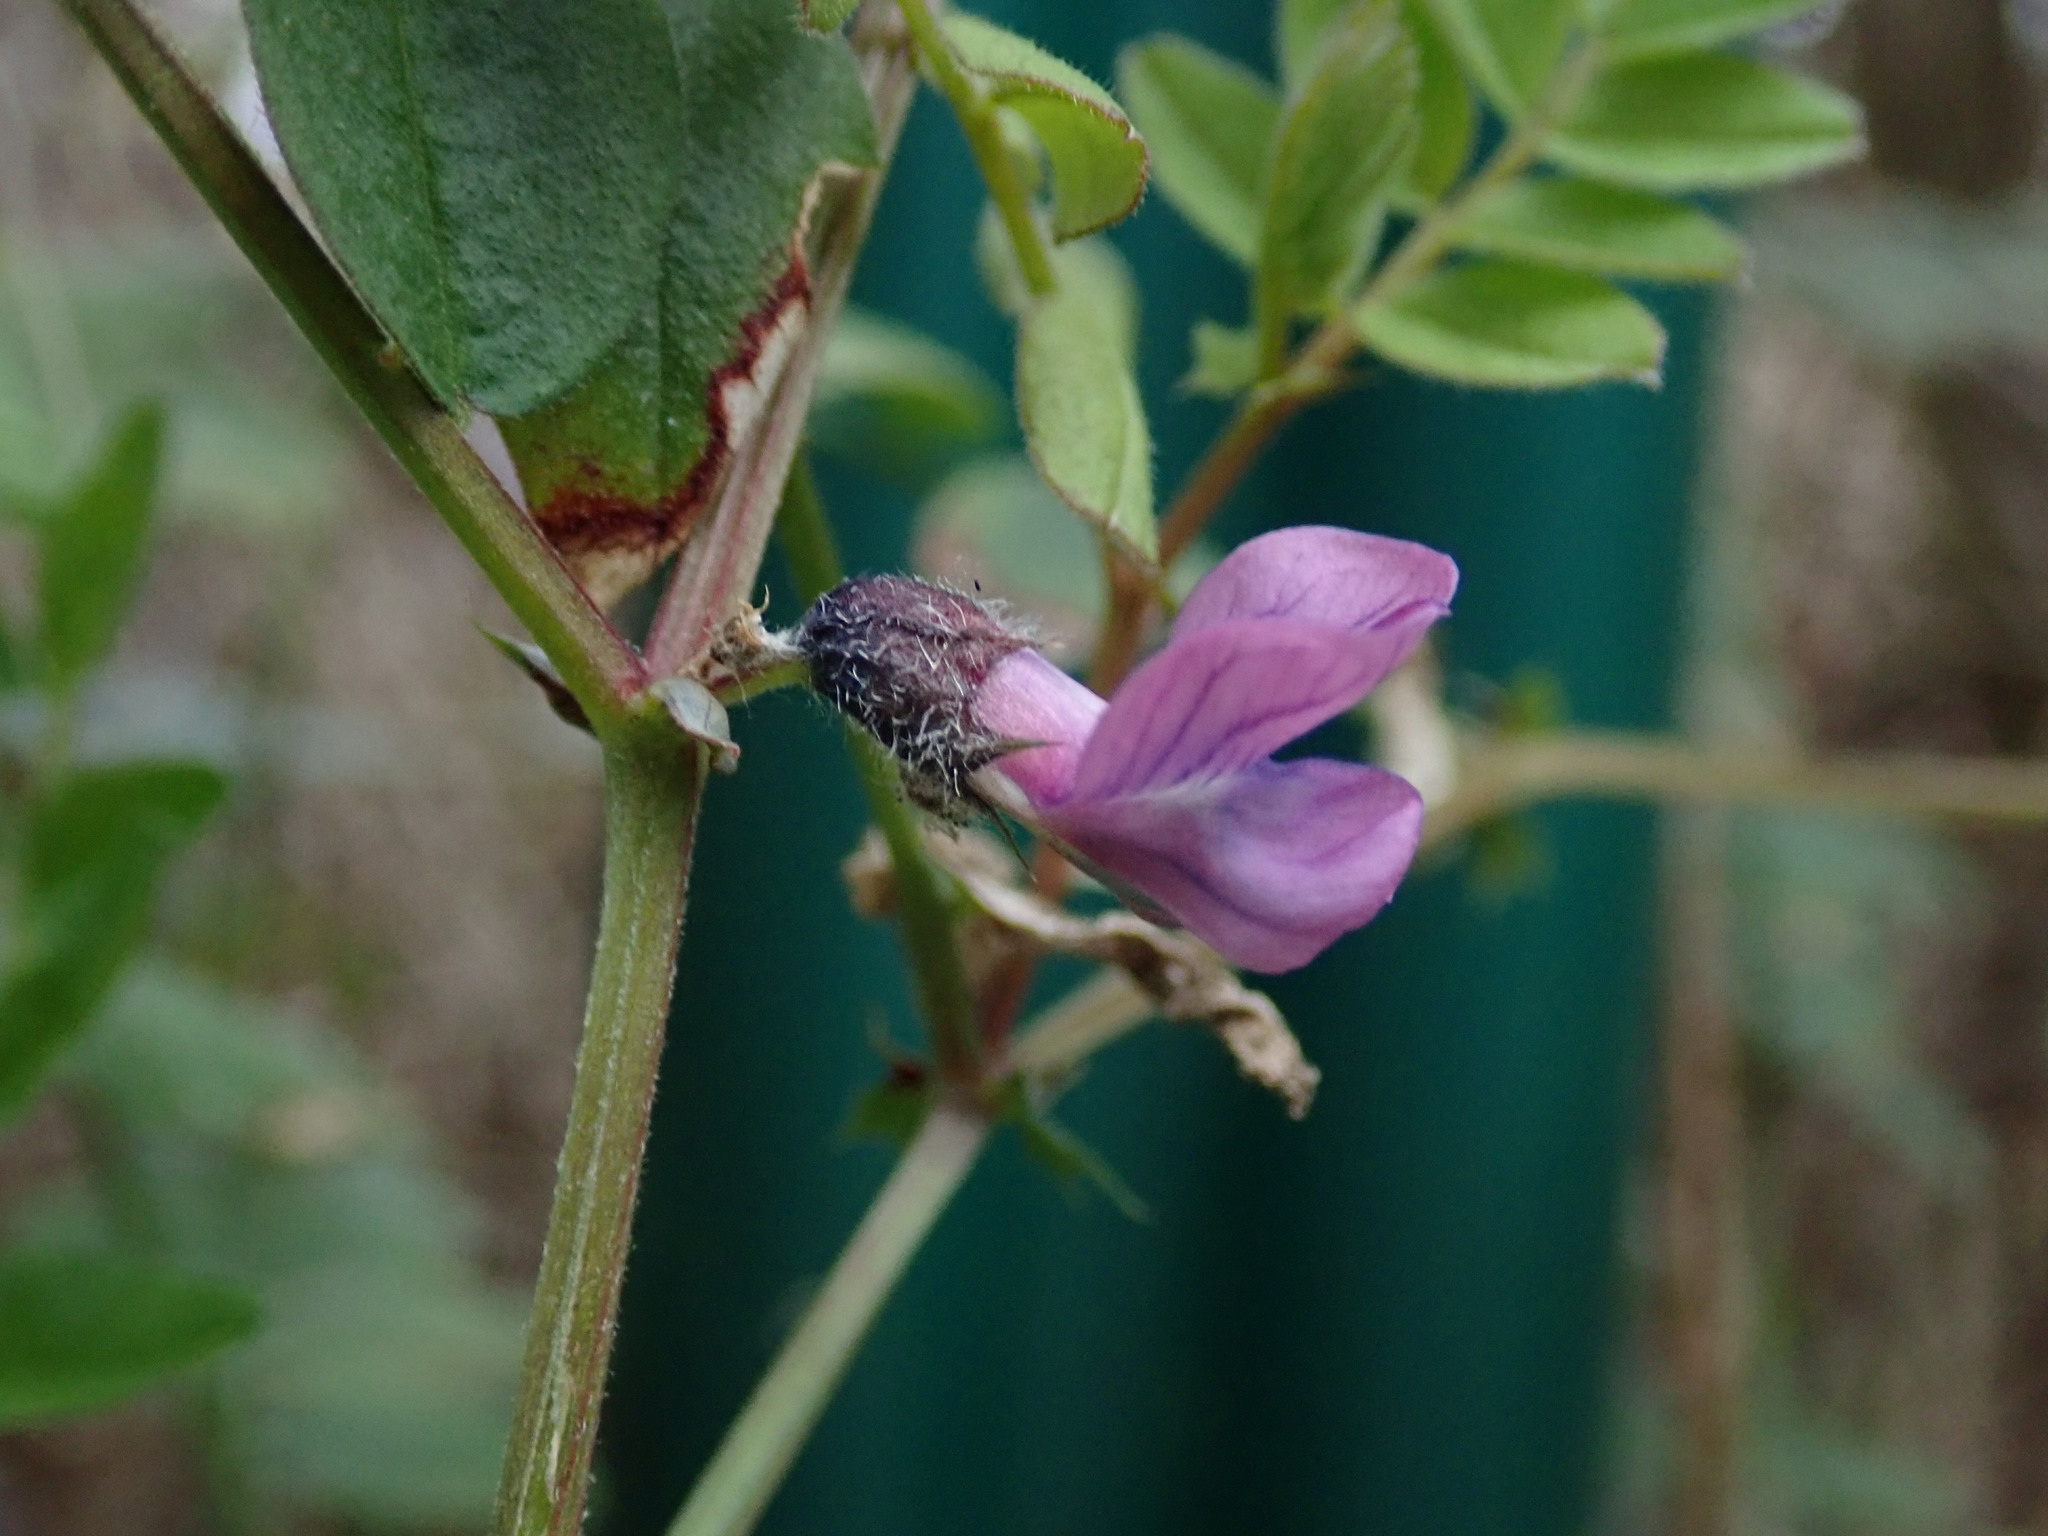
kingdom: Plantae
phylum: Tracheophyta
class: Magnoliopsida
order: Fabales
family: Fabaceae
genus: Vicia
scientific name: Vicia sepium
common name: Bush vetch
